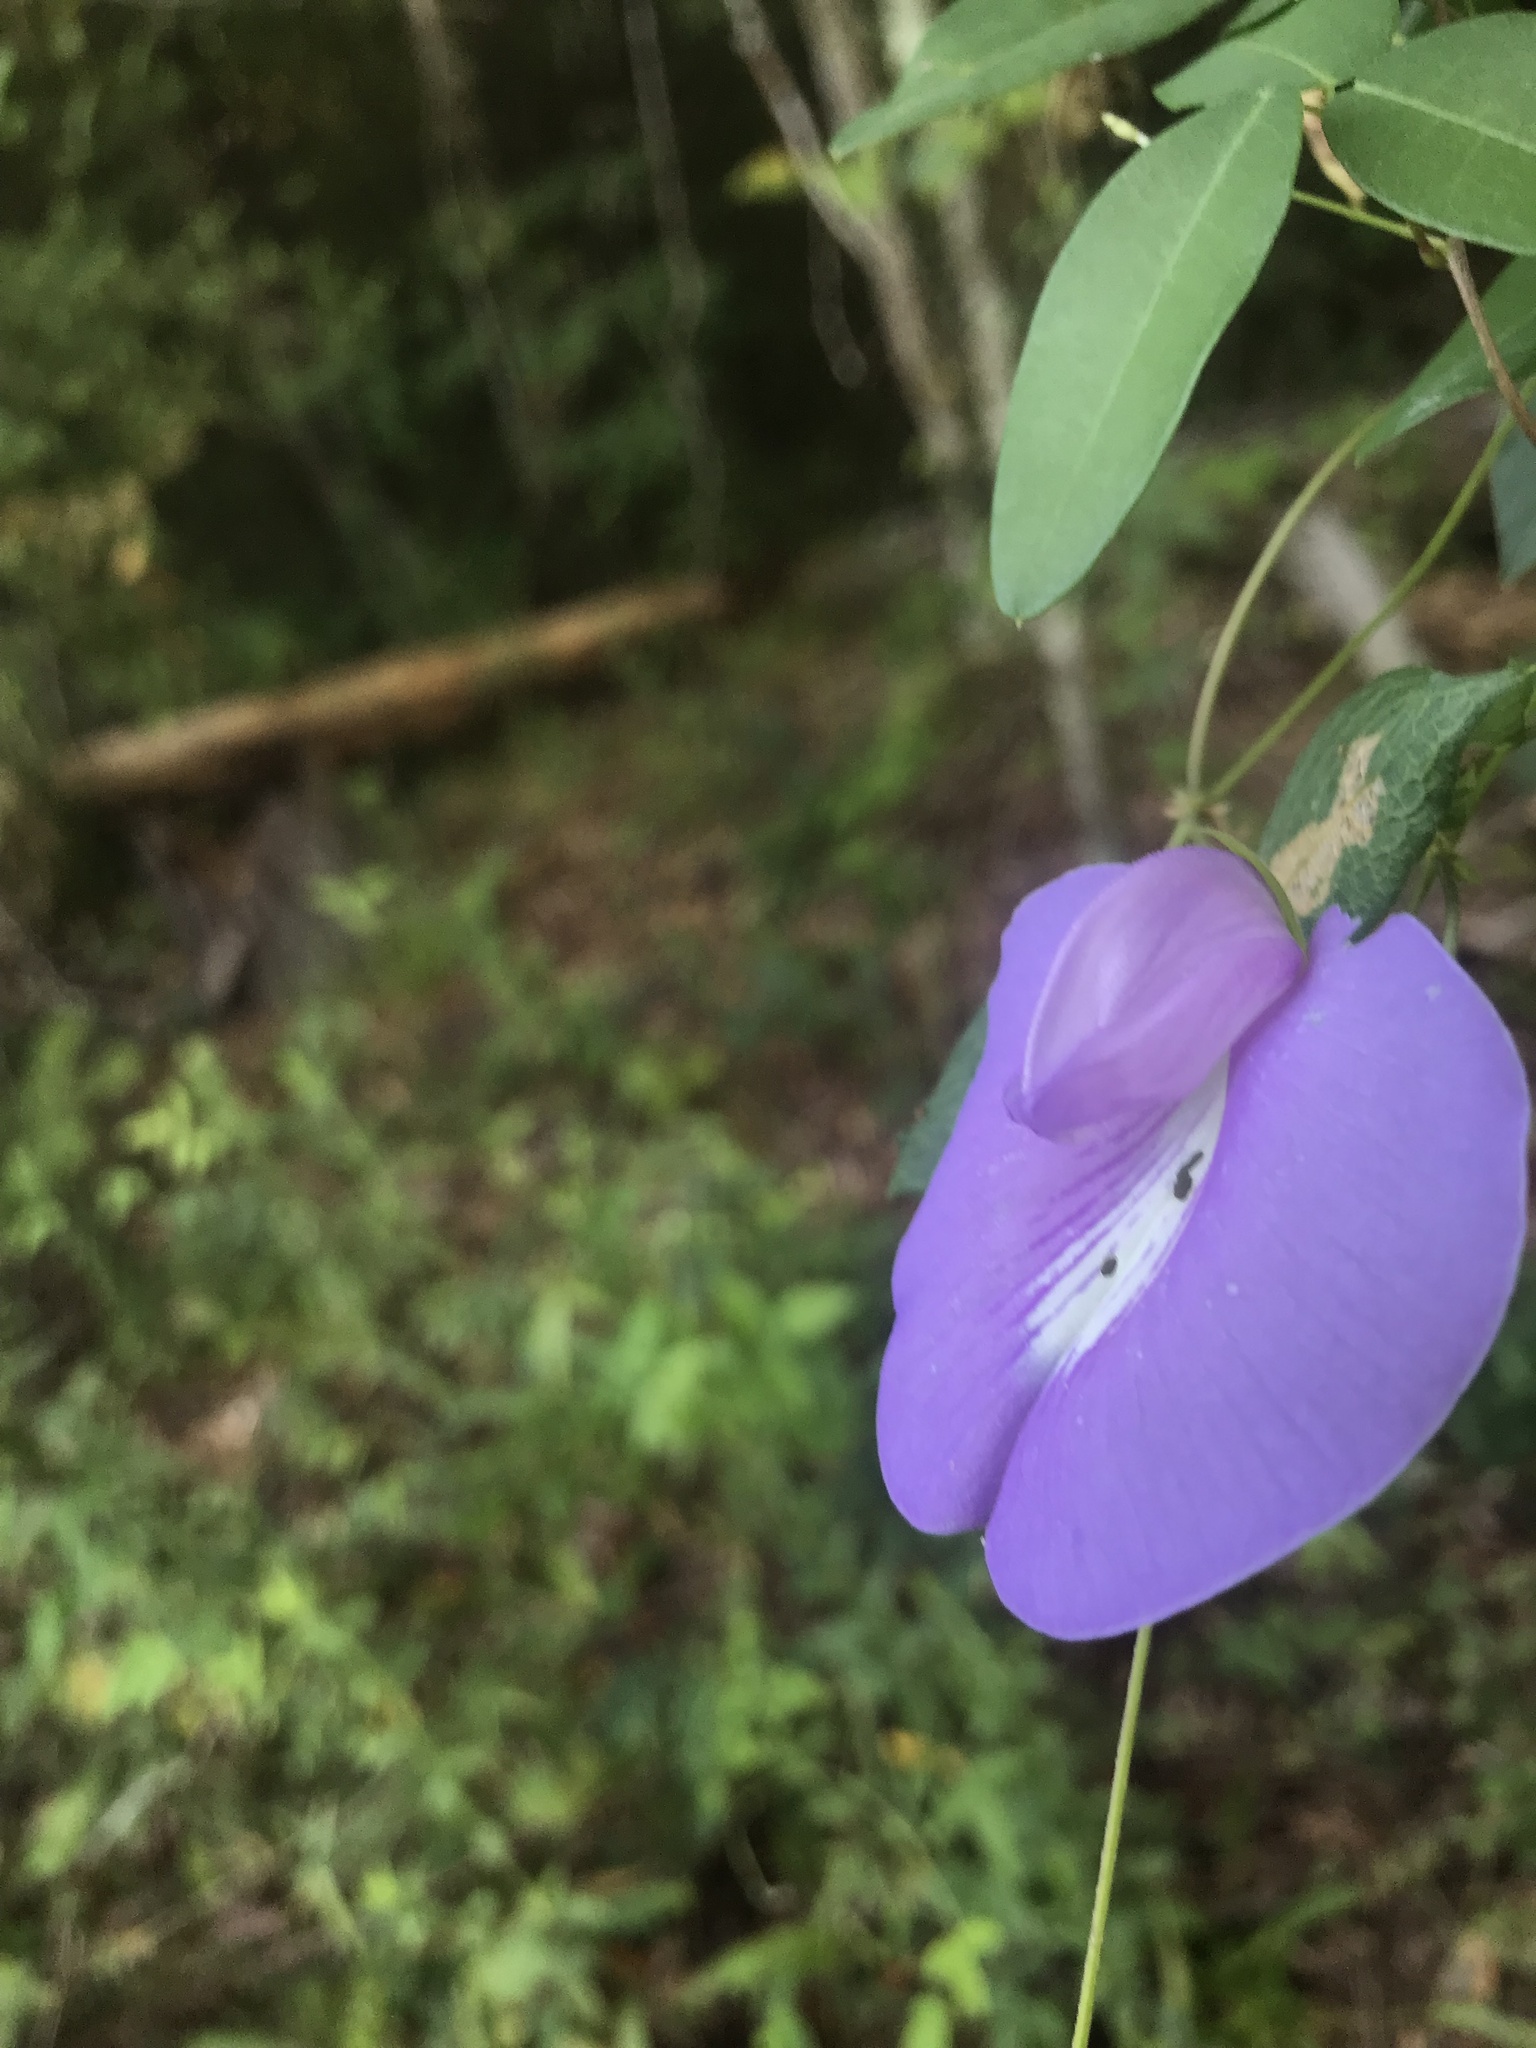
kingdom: Plantae
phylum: Tracheophyta
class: Magnoliopsida
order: Fabales
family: Fabaceae
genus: Centrosema
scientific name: Centrosema virginianum
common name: Butterfly-pea
